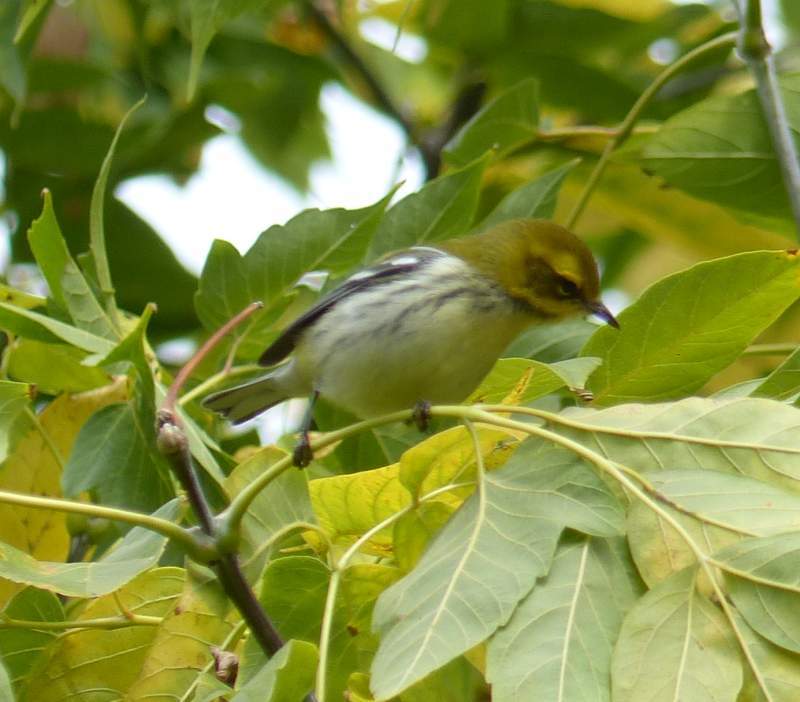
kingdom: Animalia
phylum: Chordata
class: Aves
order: Passeriformes
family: Parulidae
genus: Setophaga
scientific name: Setophaga virens
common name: Black-throated green warbler
